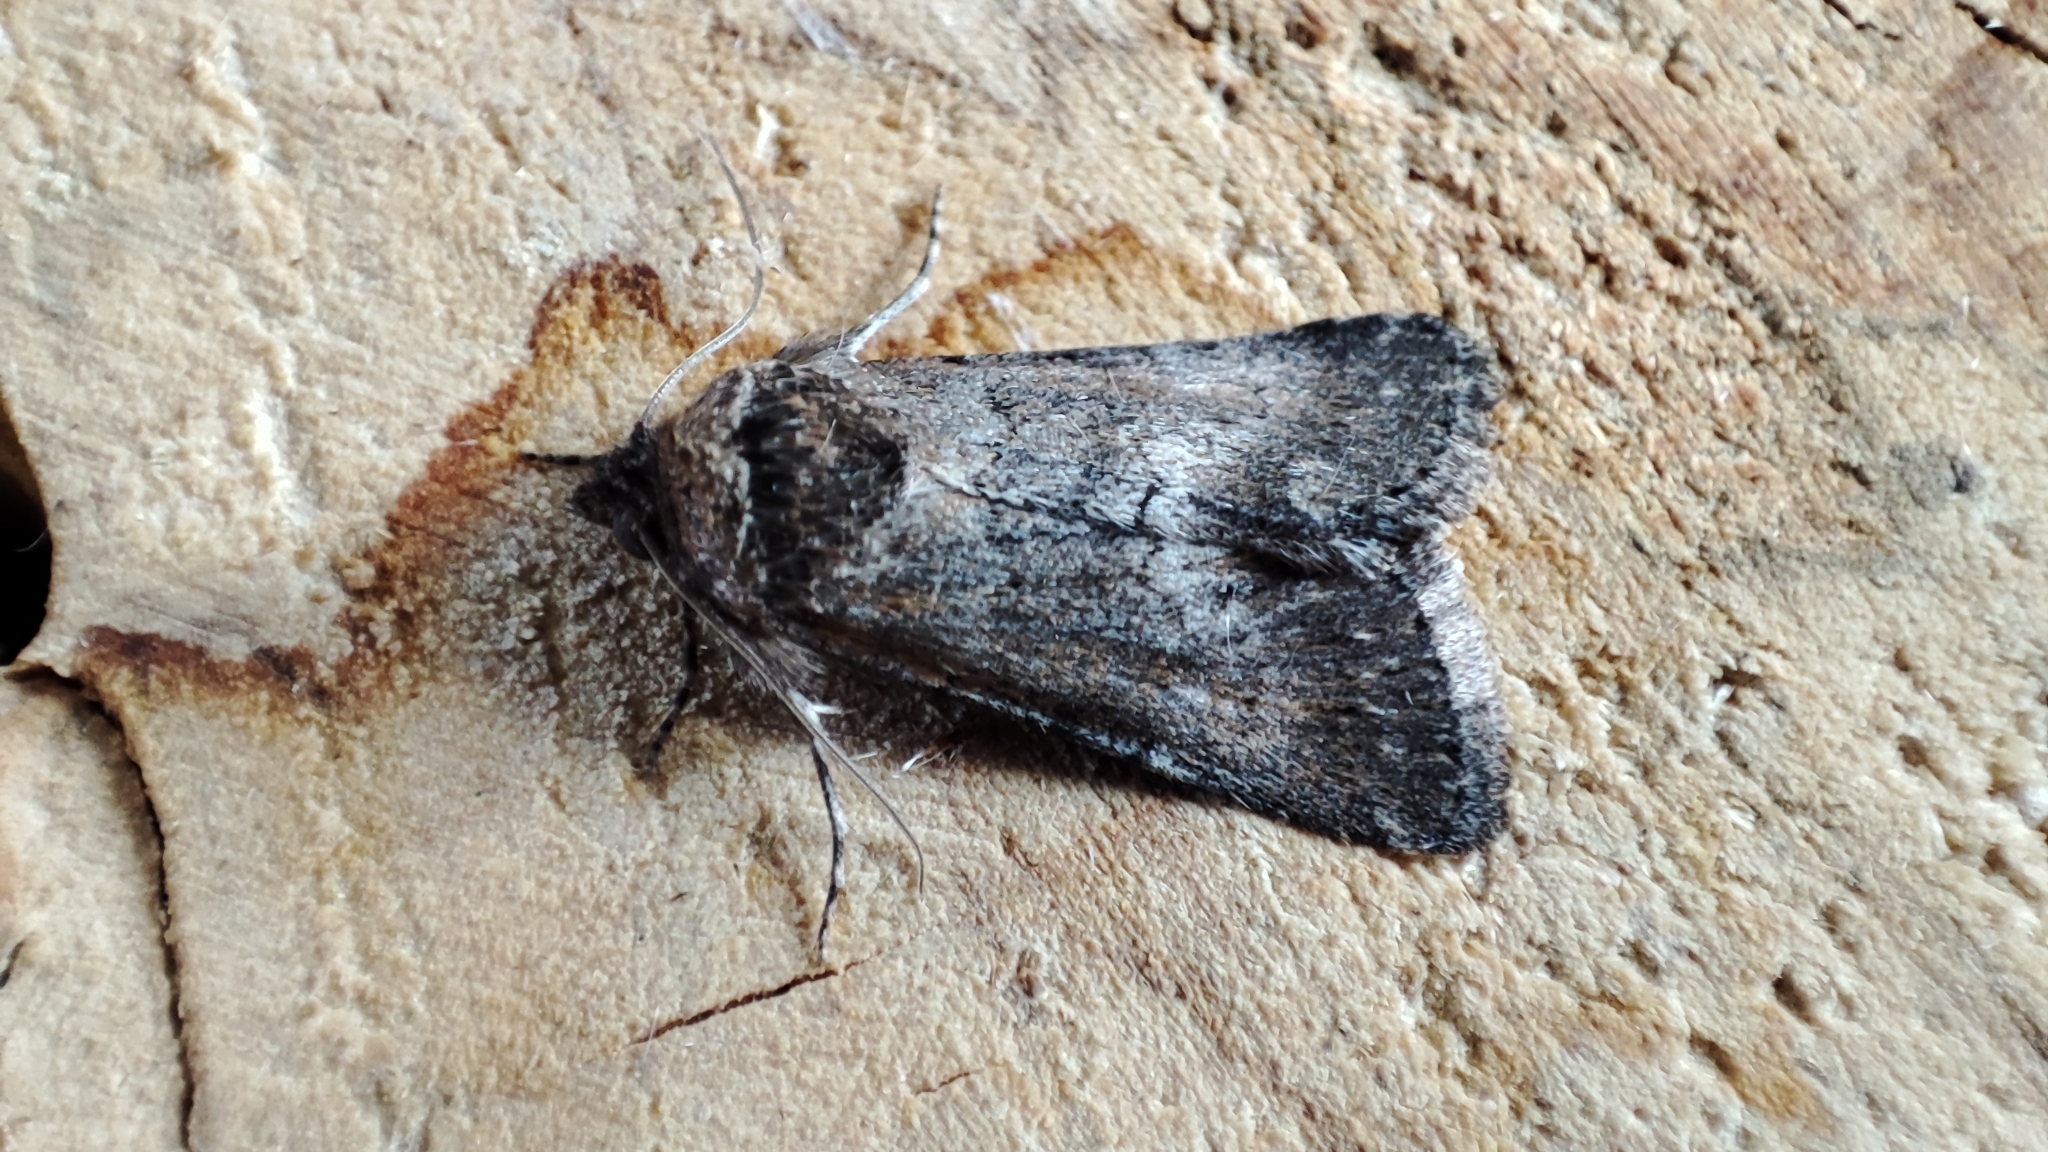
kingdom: Animalia
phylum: Arthropoda
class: Insecta
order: Lepidoptera
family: Noctuidae
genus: Sympistis
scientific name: Sympistis heliophila
